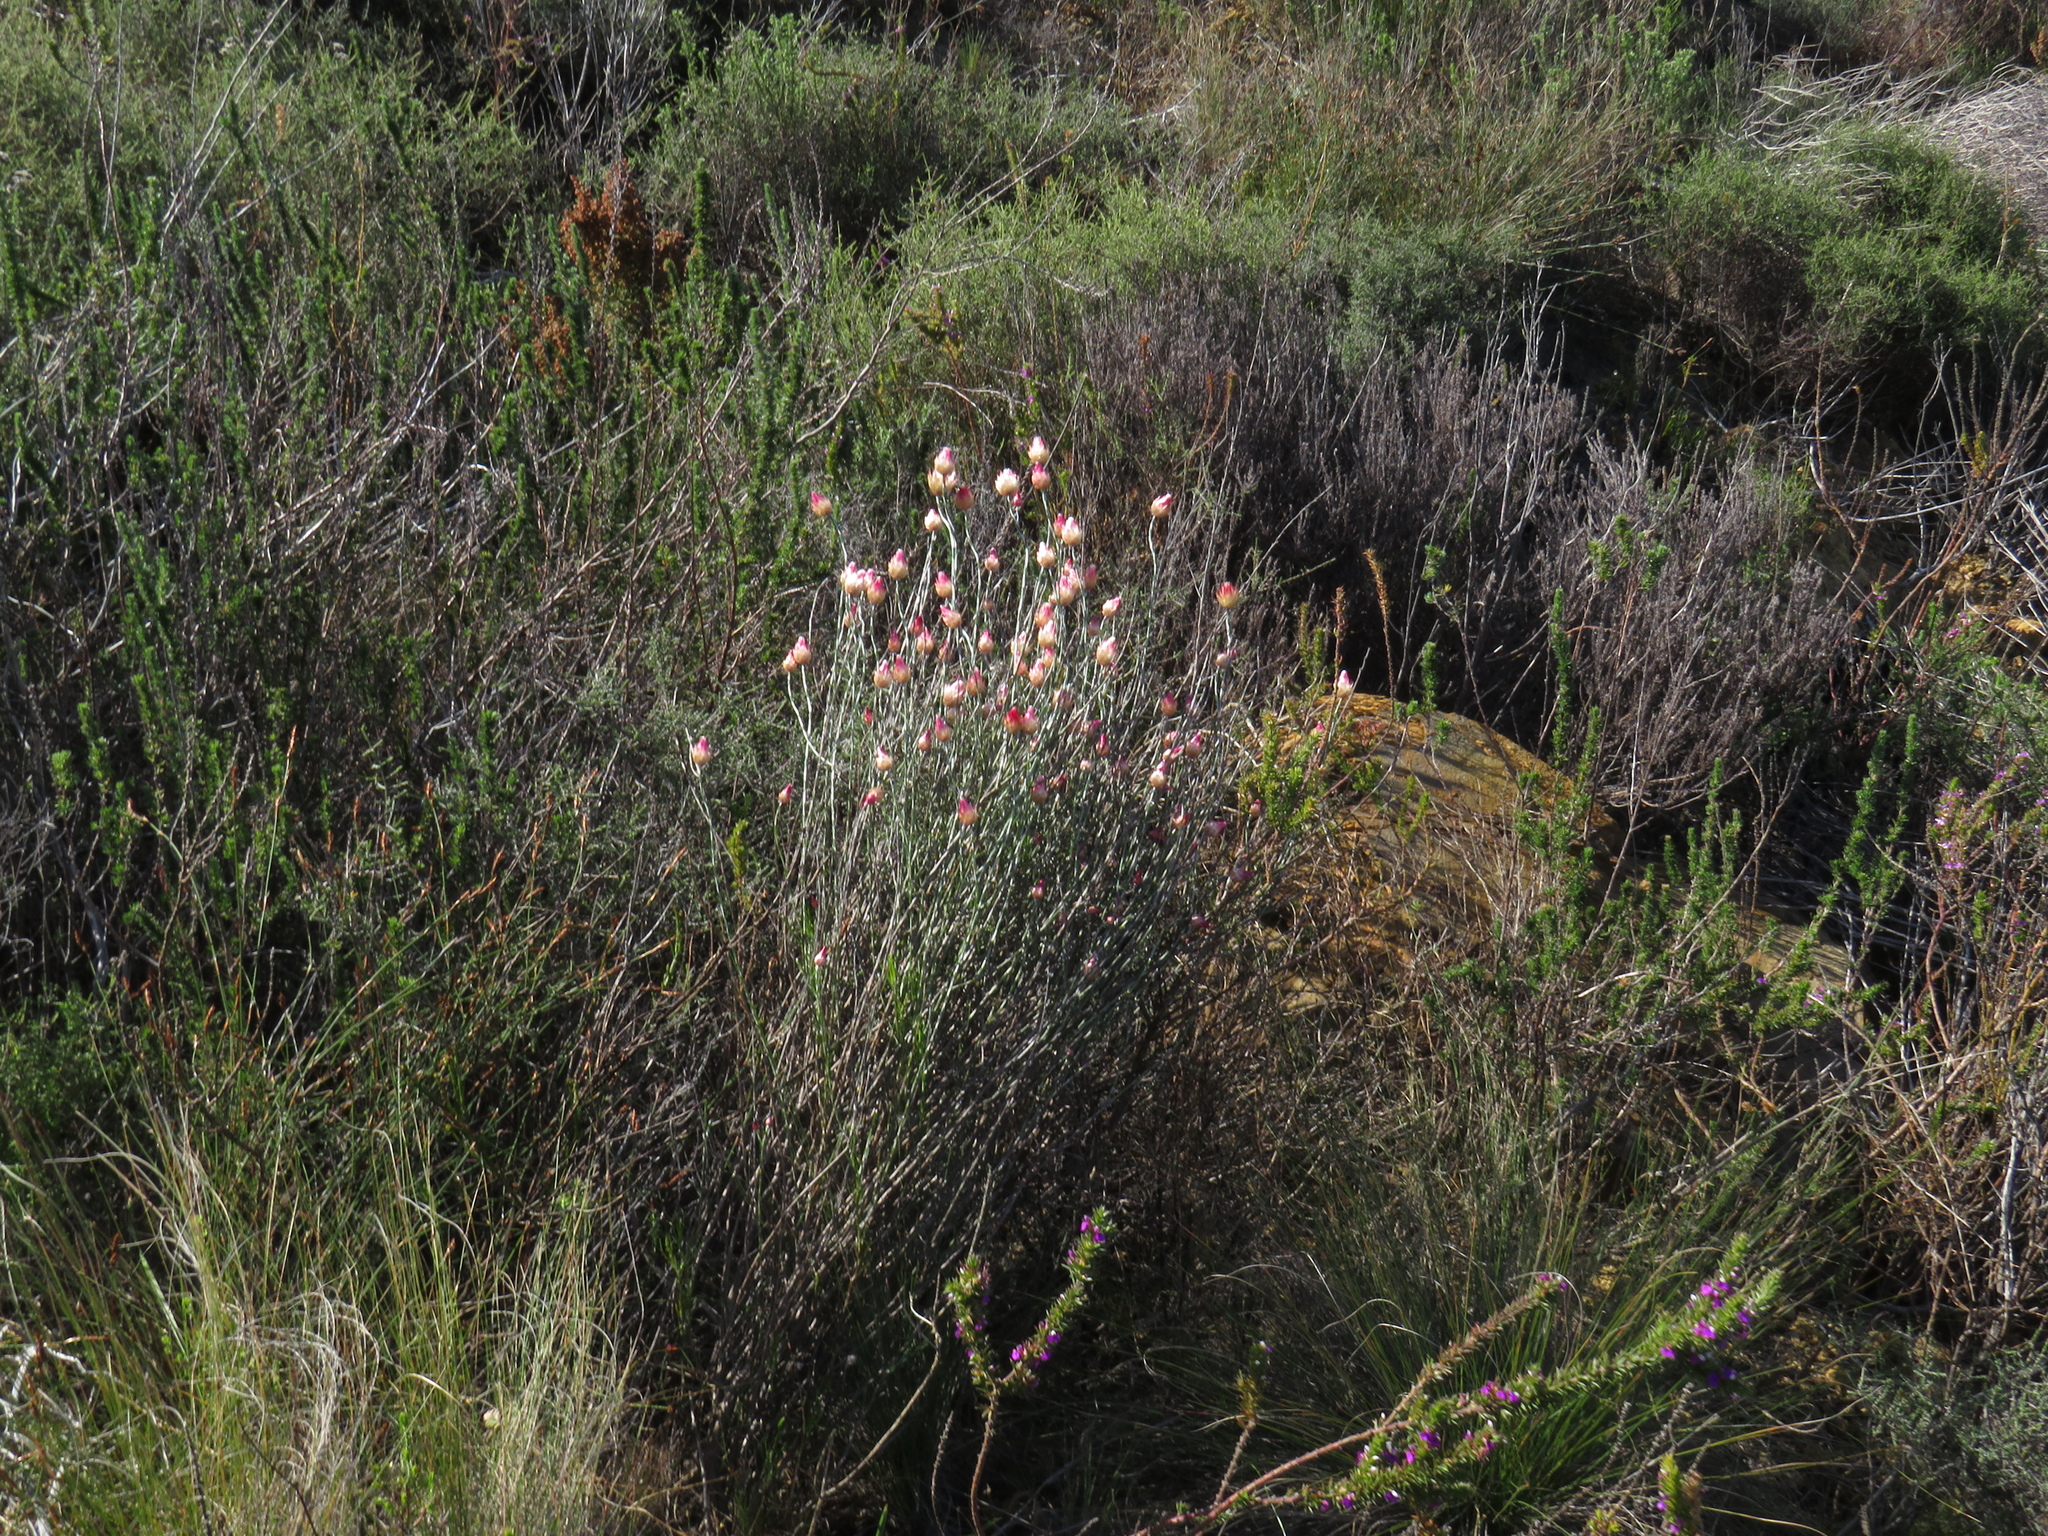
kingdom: Plantae
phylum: Tracheophyta
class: Magnoliopsida
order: Asterales
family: Asteraceae
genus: Edmondia
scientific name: Edmondia sesamoides
